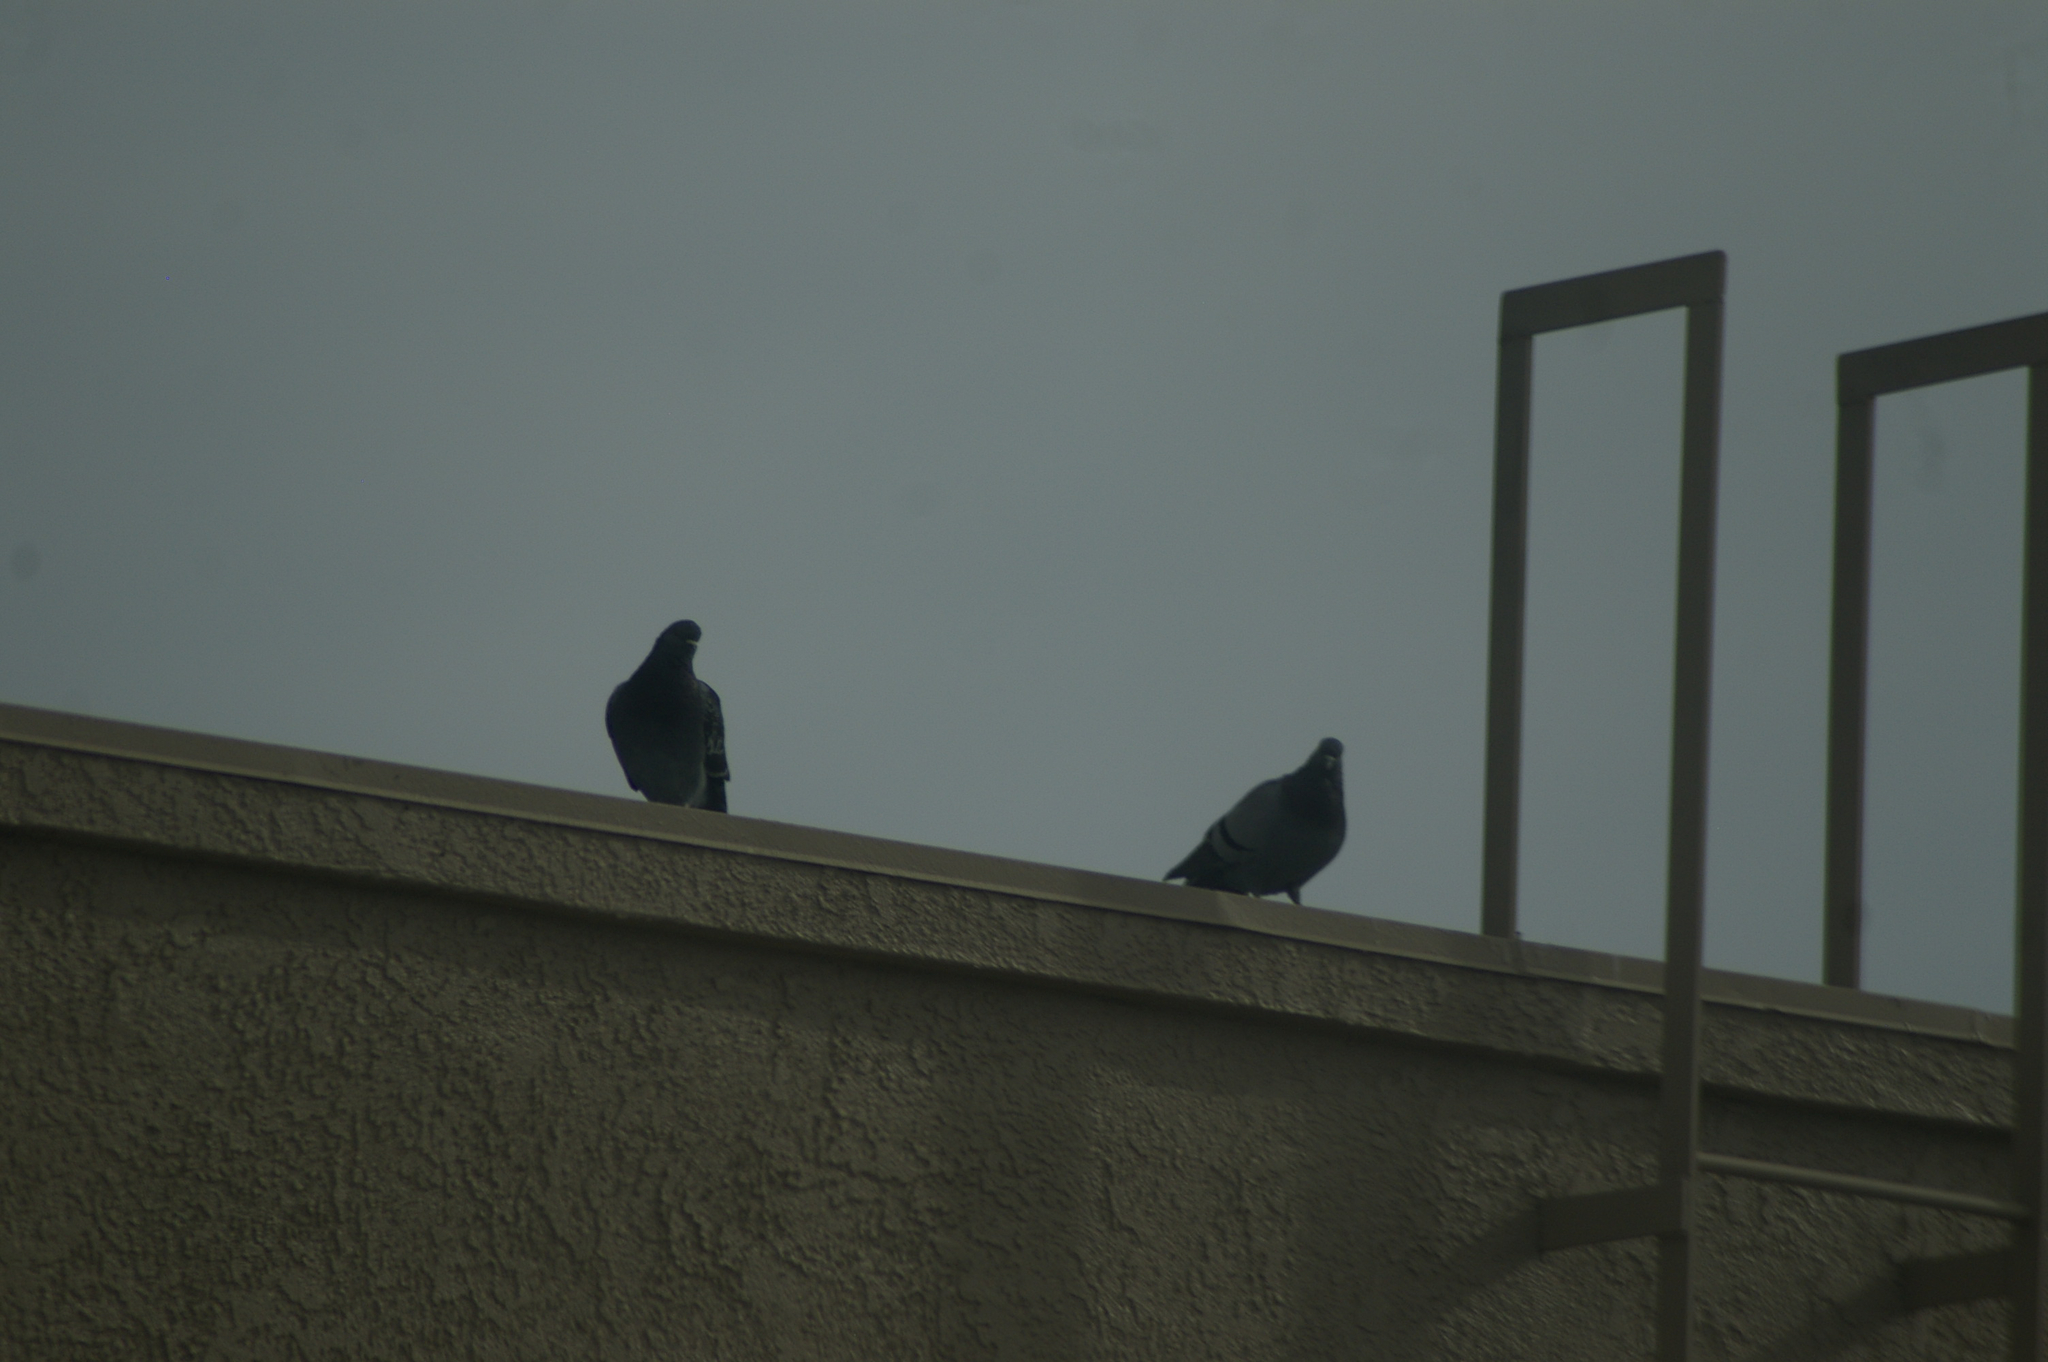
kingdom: Animalia
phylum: Chordata
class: Aves
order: Columbiformes
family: Columbidae
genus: Columba
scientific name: Columba livia
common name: Rock pigeon
